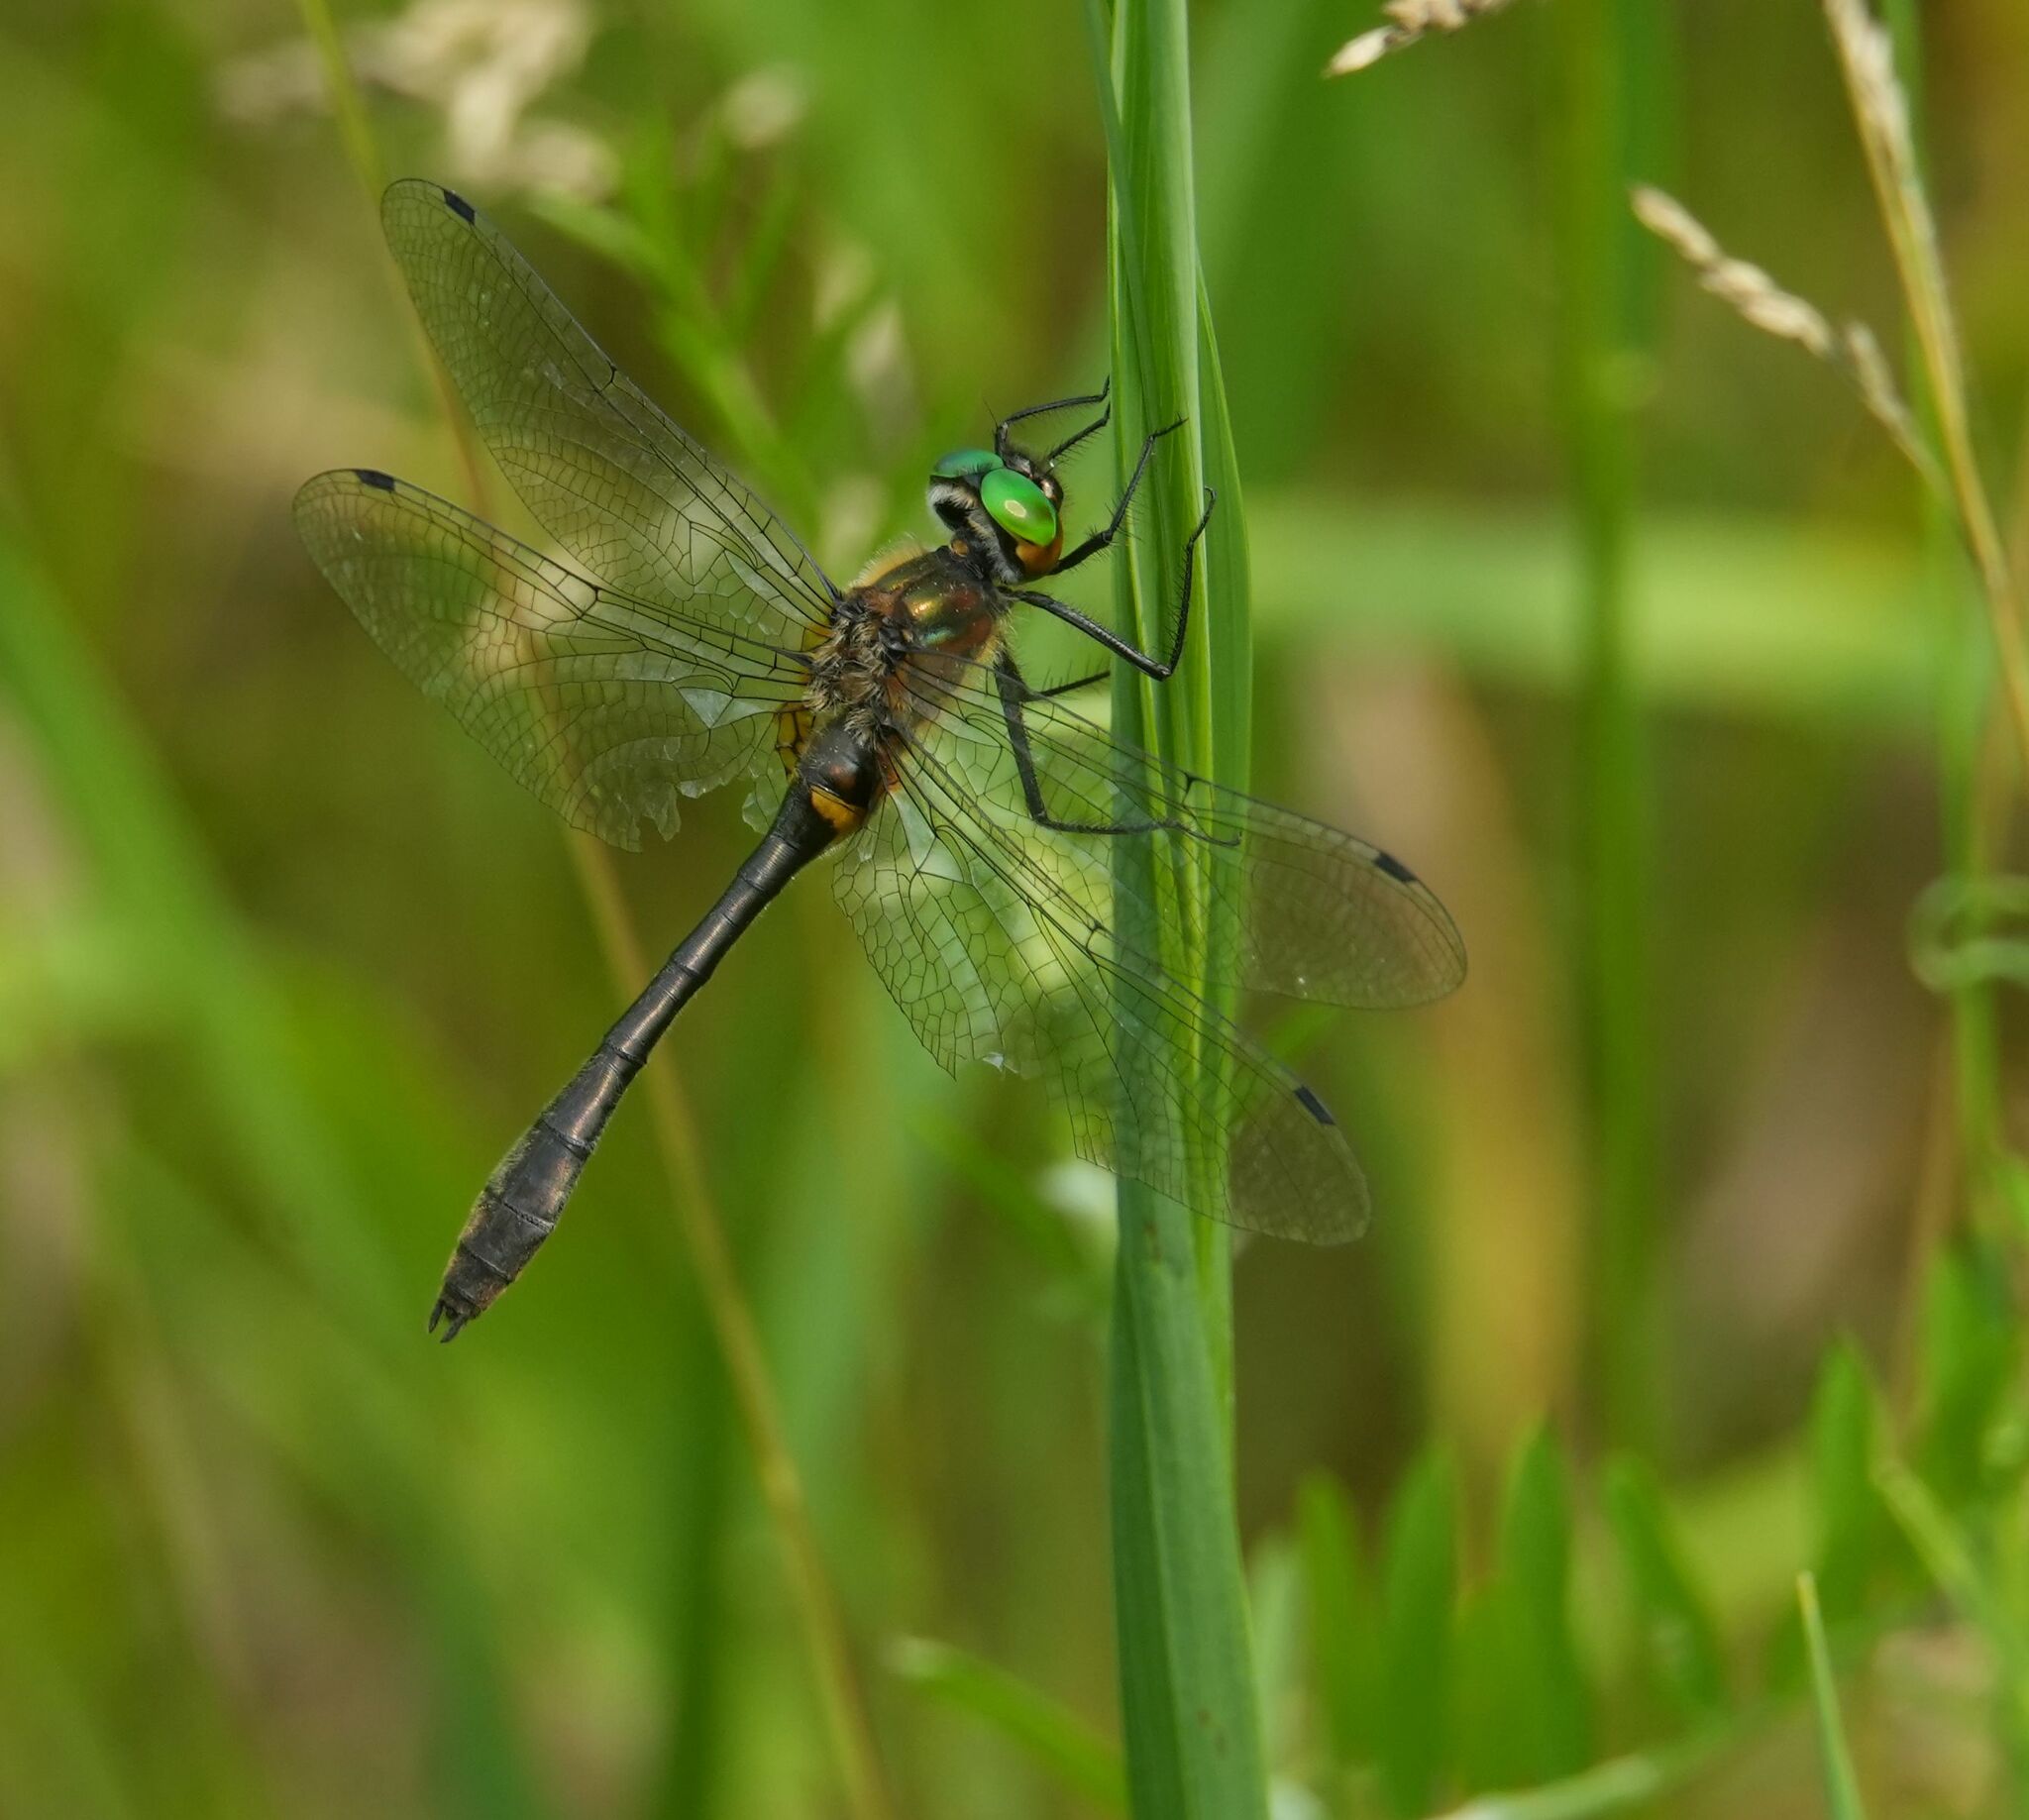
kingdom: Animalia
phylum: Arthropoda
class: Insecta
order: Odonata
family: Corduliidae
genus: Dorocordulia
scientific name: Dorocordulia libera
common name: Racket-tailed emerald
